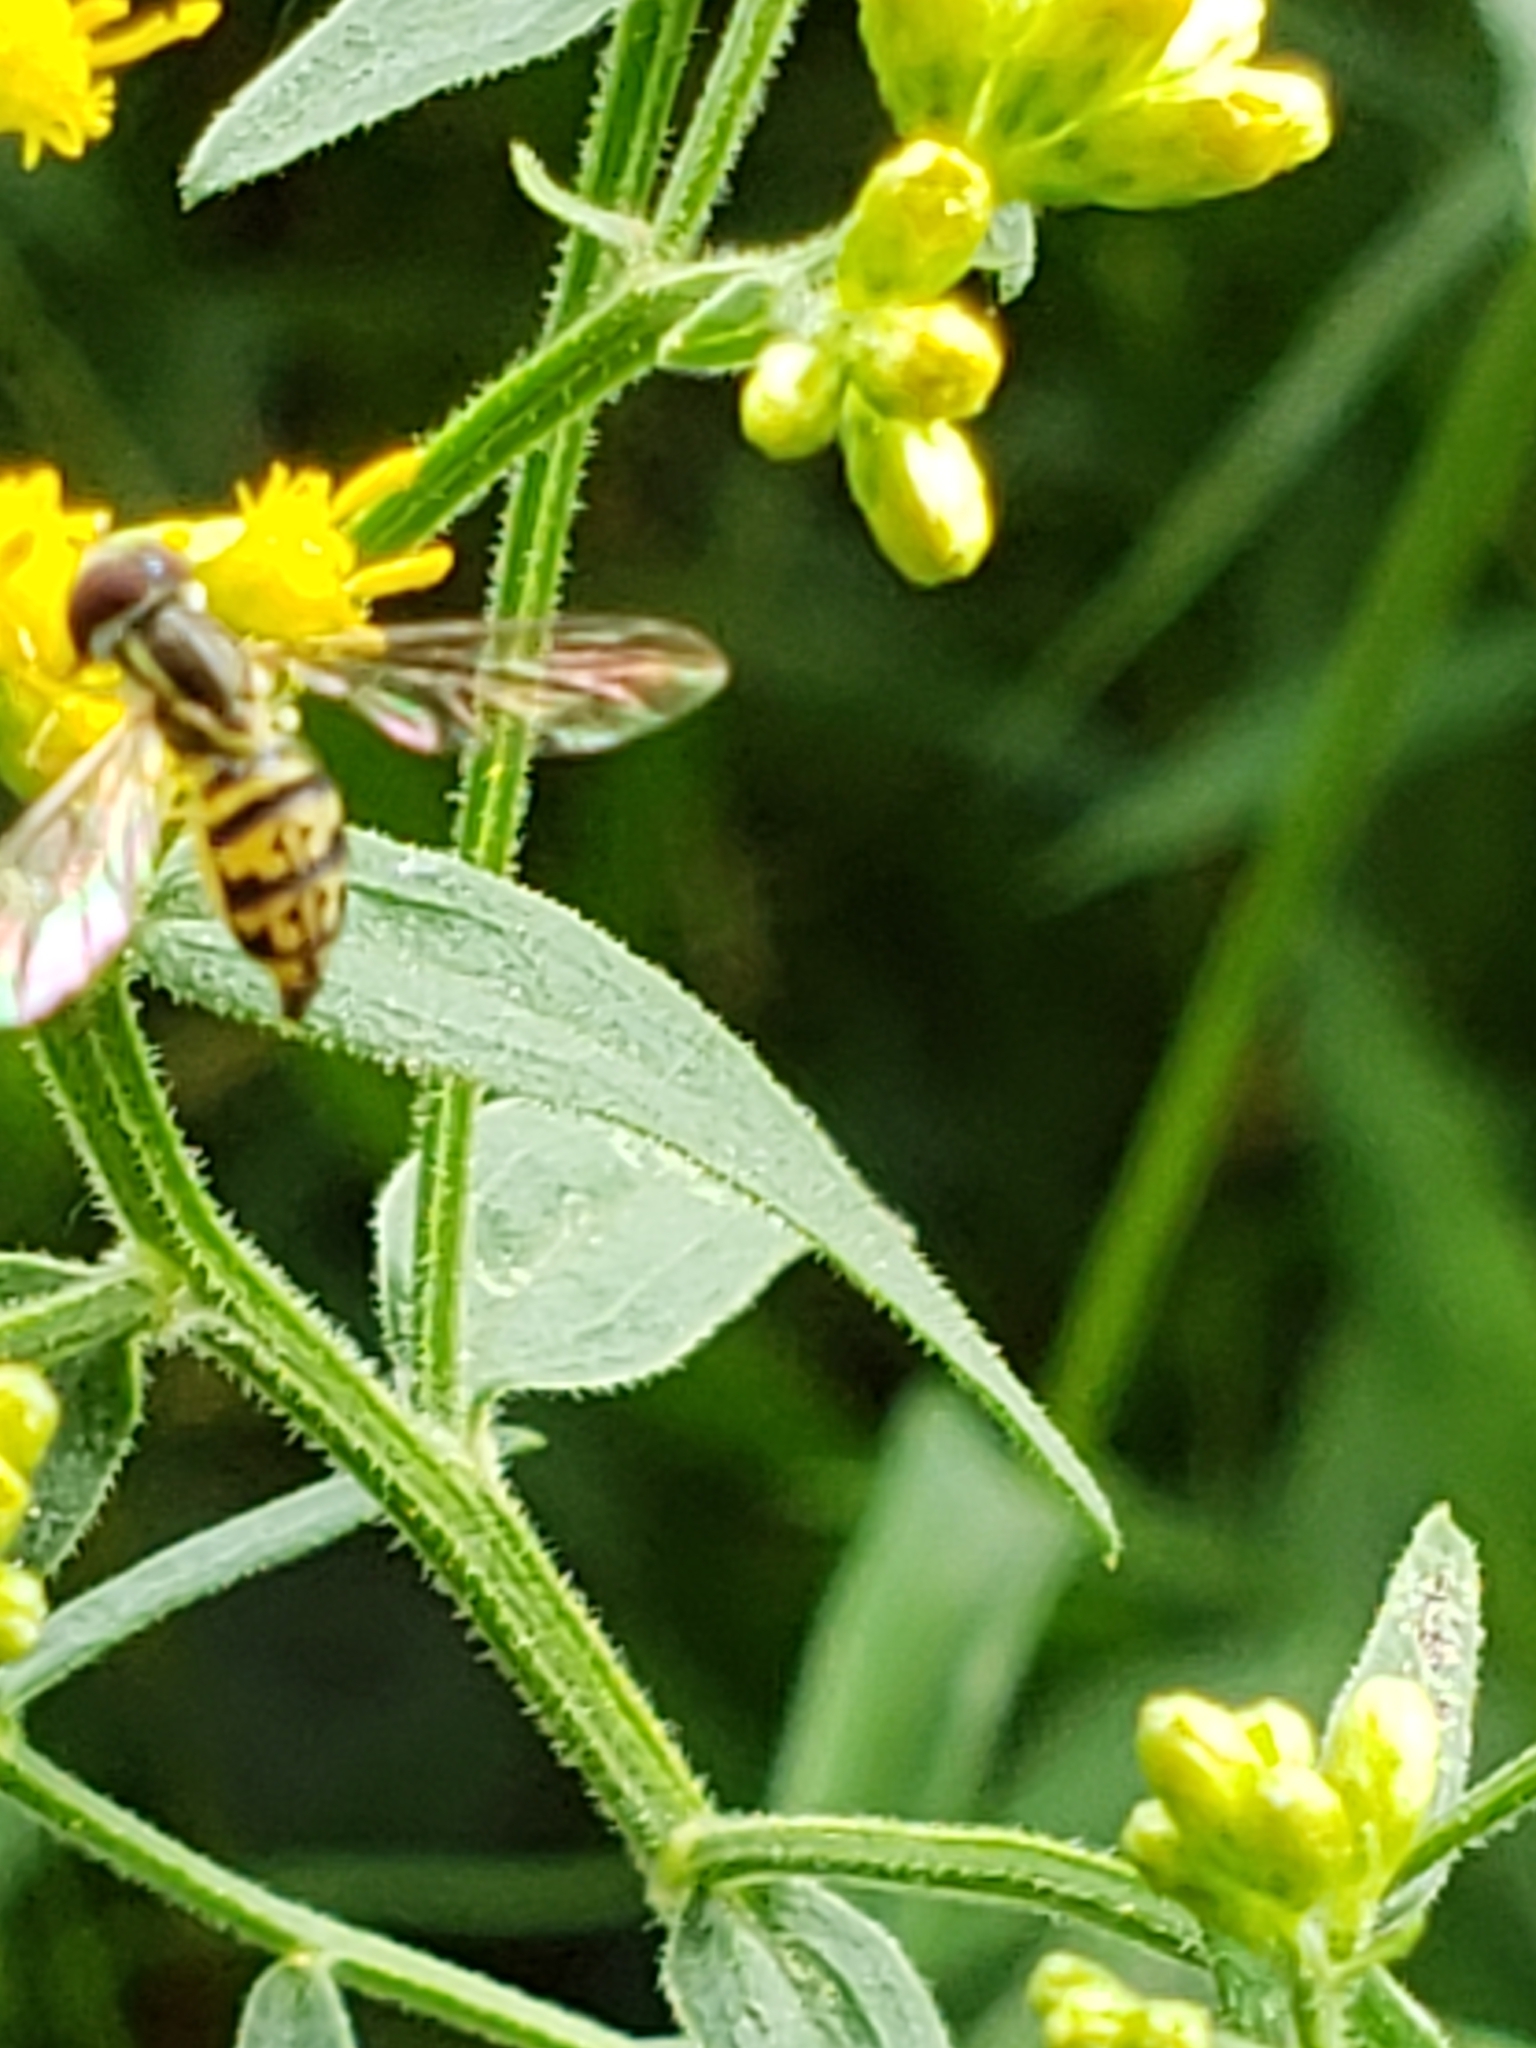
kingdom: Animalia
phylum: Arthropoda
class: Insecta
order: Diptera
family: Syrphidae
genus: Toxomerus
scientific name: Toxomerus geminatus
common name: Eastern calligrapher
